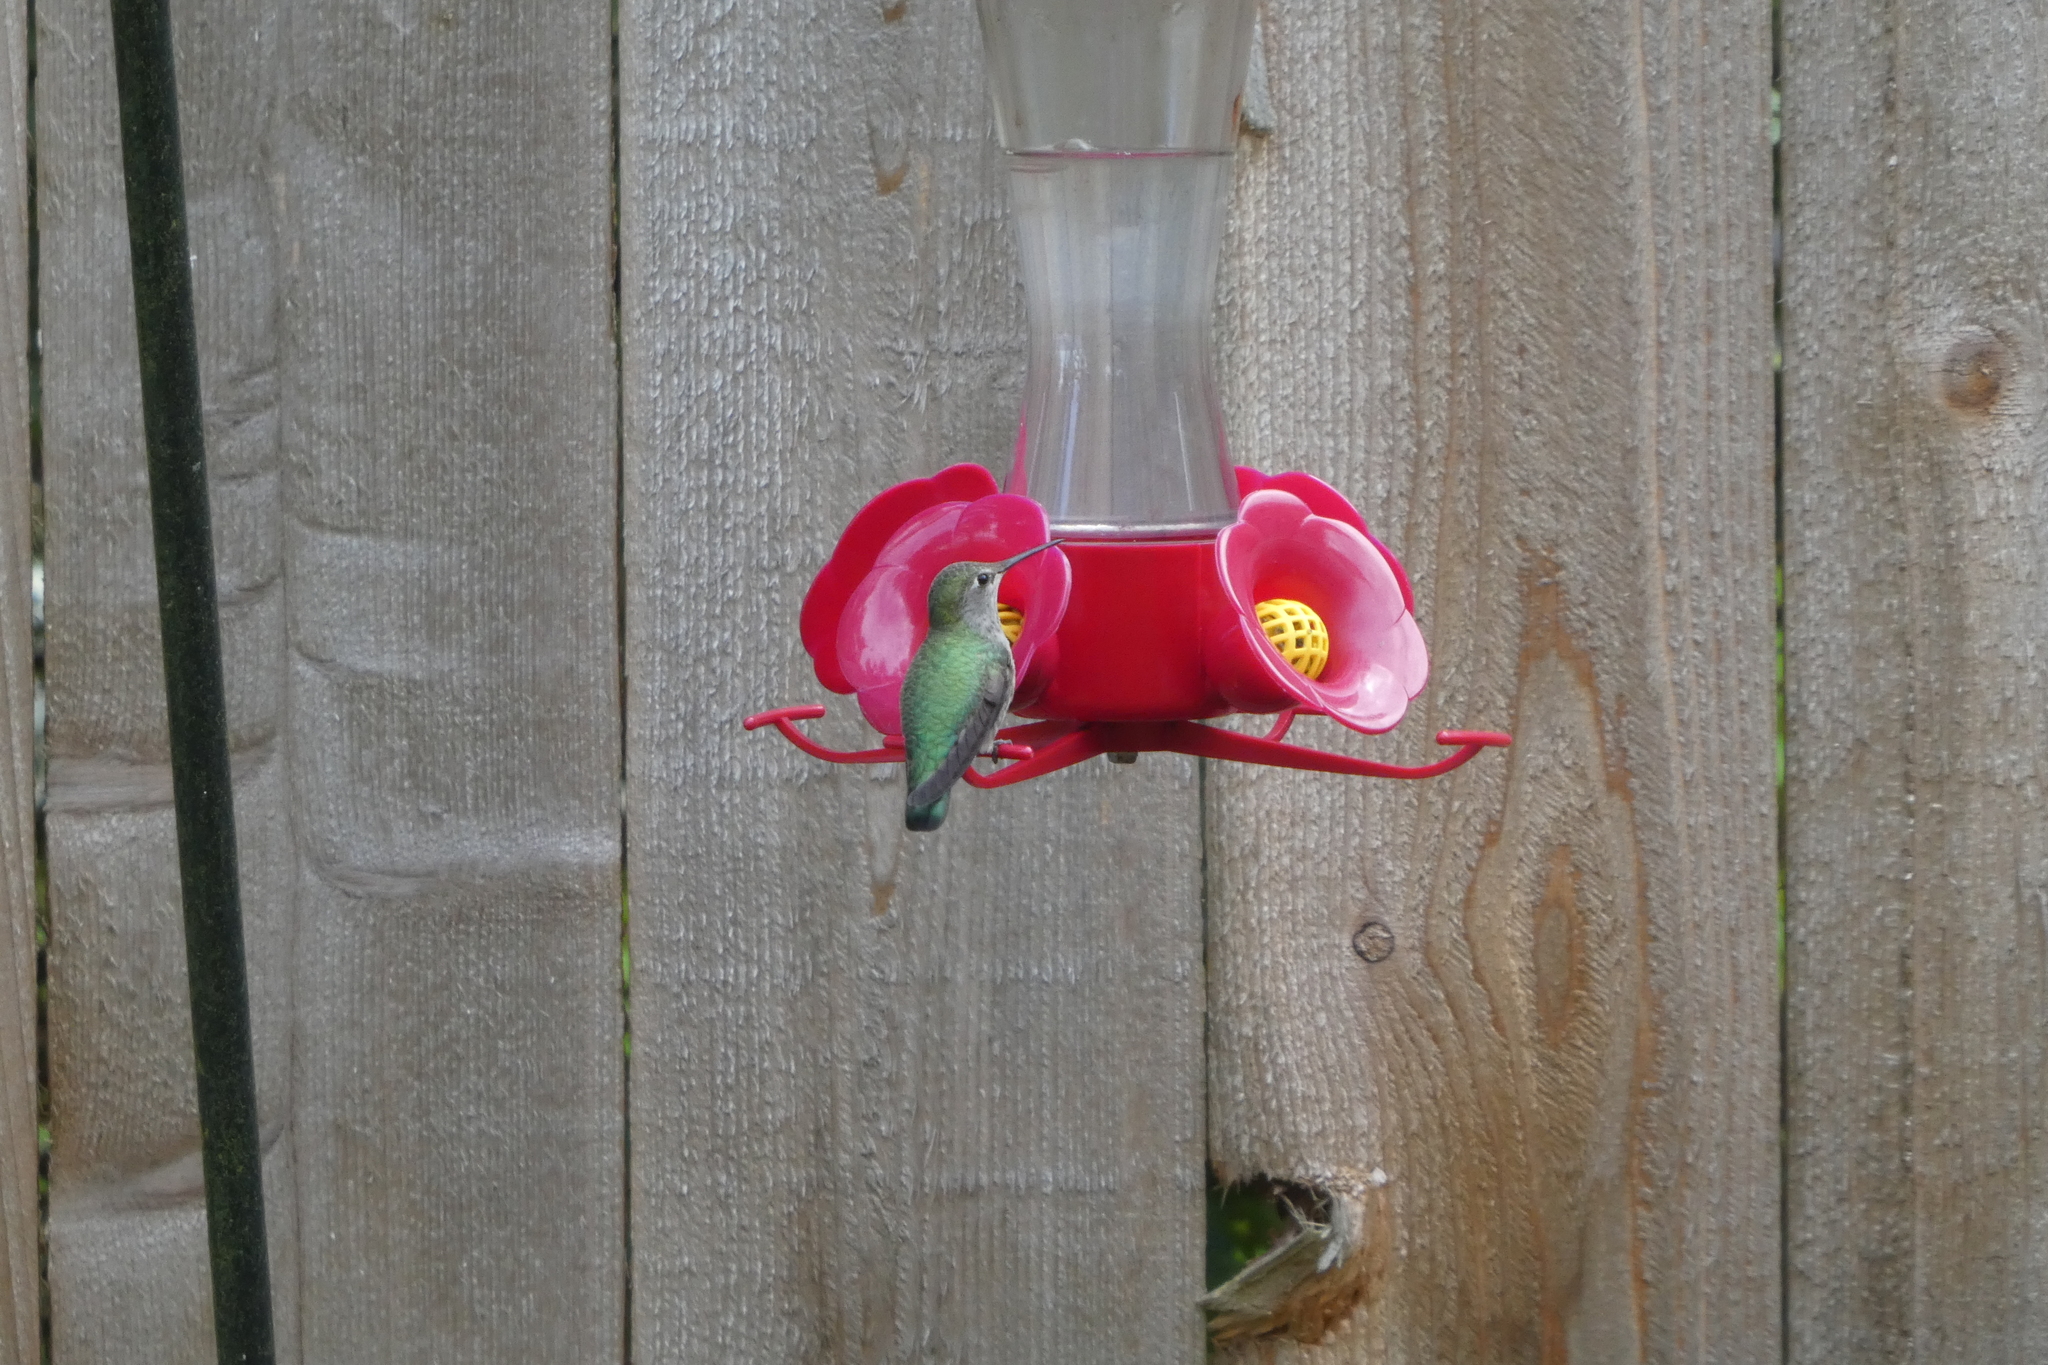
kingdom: Animalia
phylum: Chordata
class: Aves
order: Apodiformes
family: Trochilidae
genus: Calypte
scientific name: Calypte anna
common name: Anna's hummingbird
